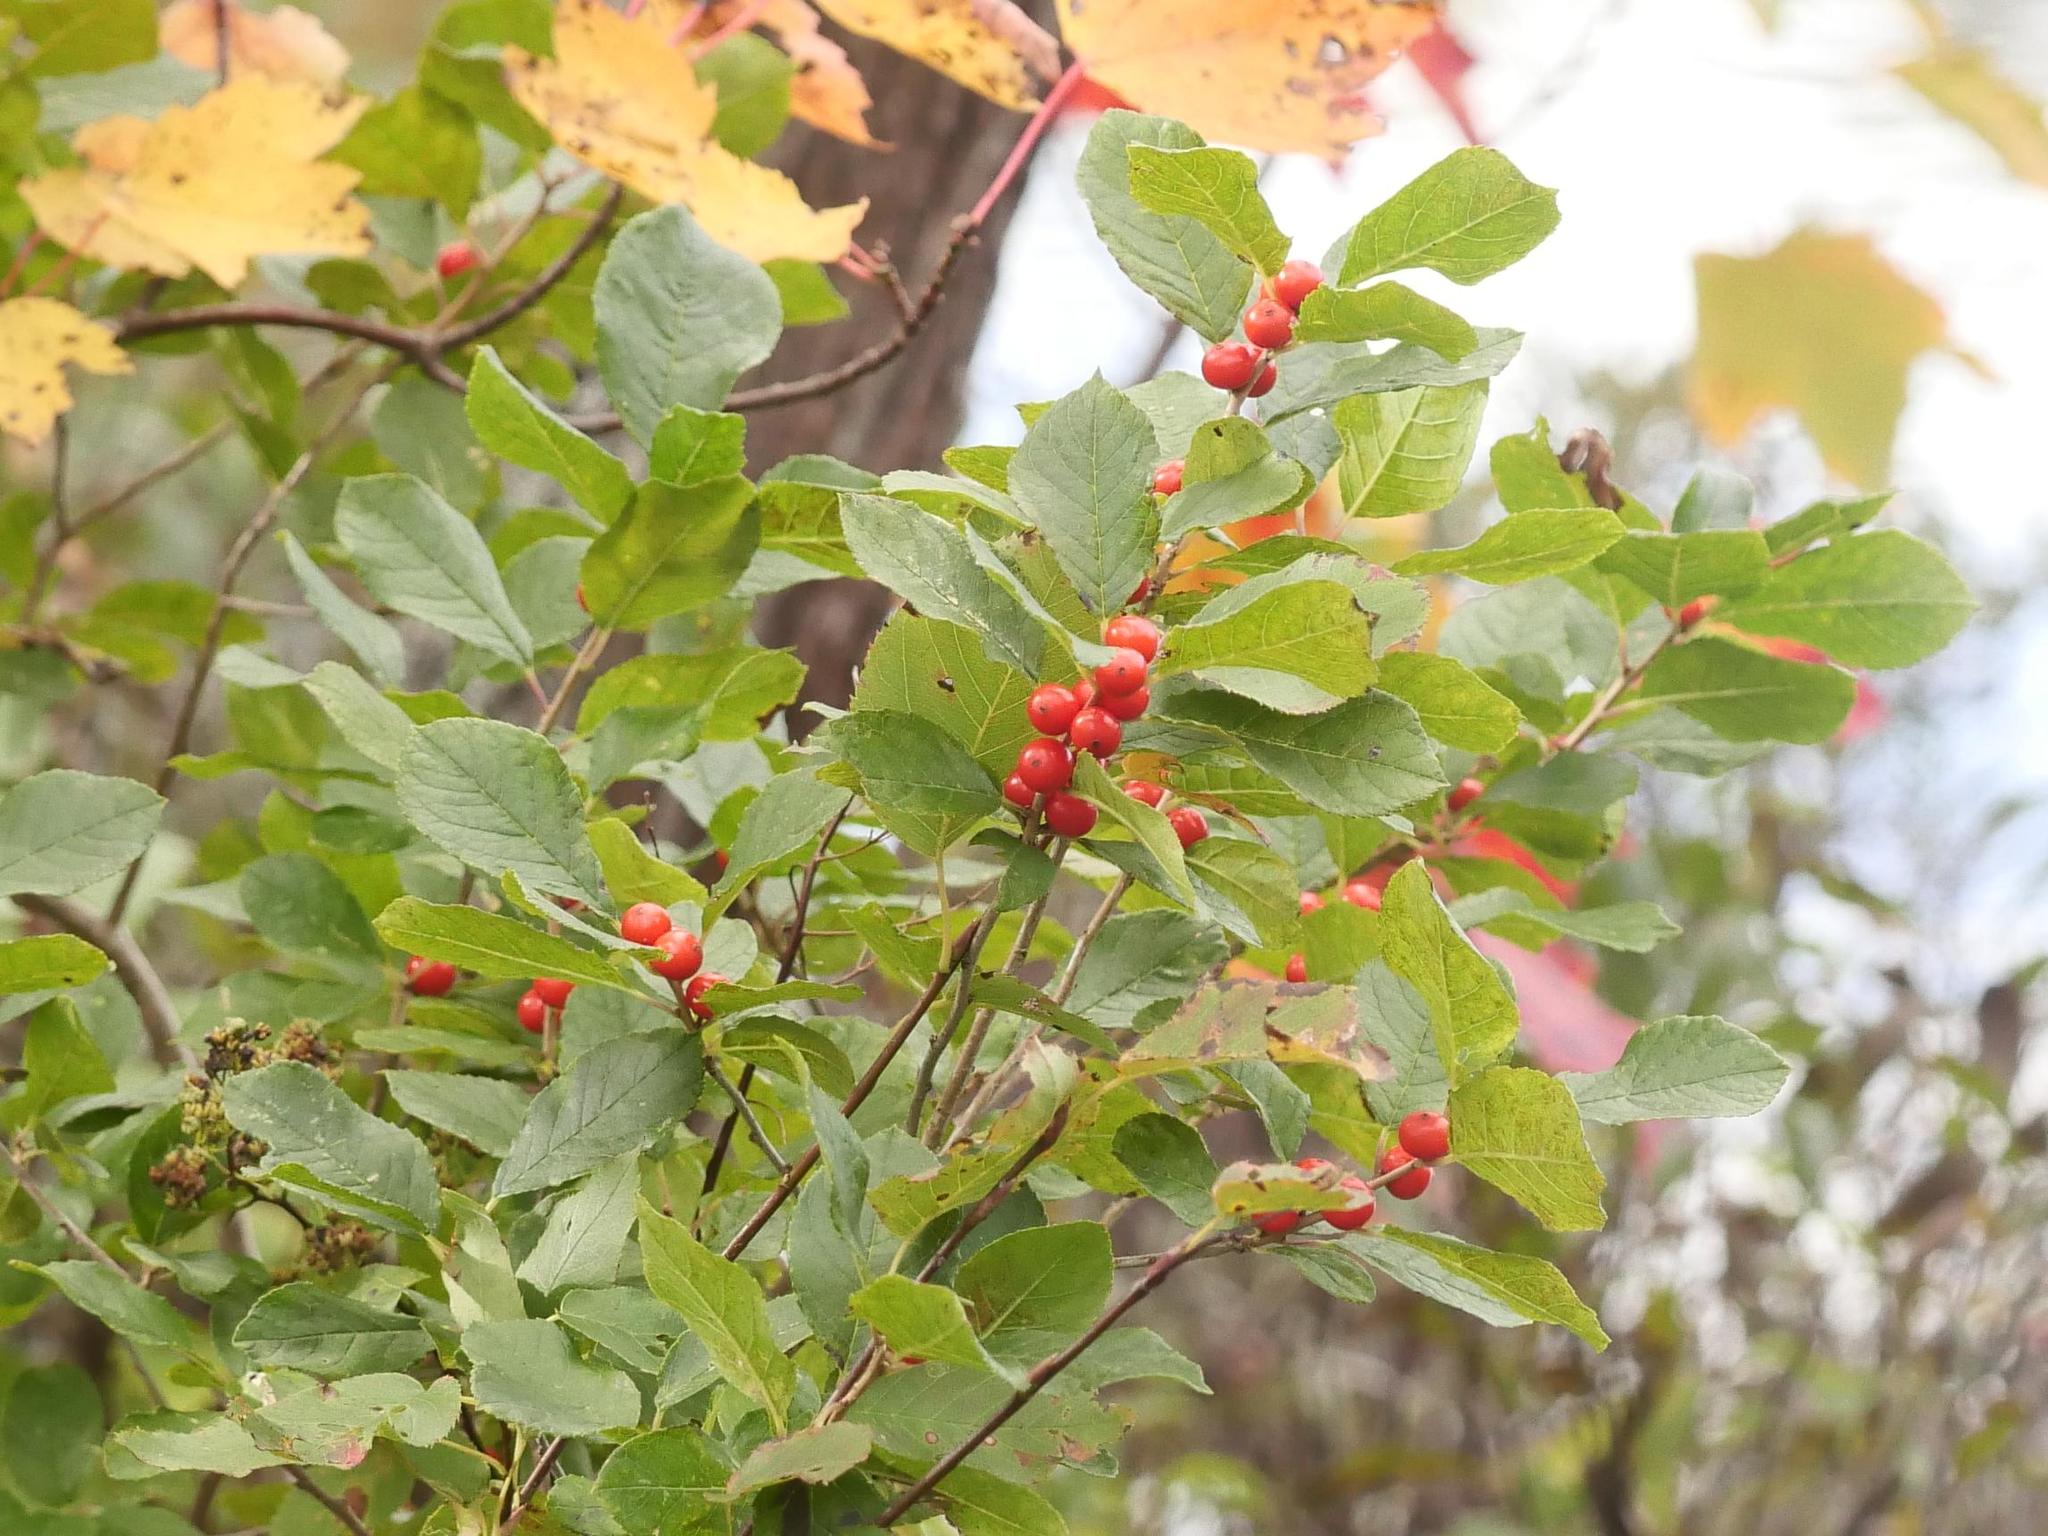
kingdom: Plantae
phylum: Tracheophyta
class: Magnoliopsida
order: Aquifoliales
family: Aquifoliaceae
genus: Ilex
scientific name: Ilex verticillata
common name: Virginia winterberry
